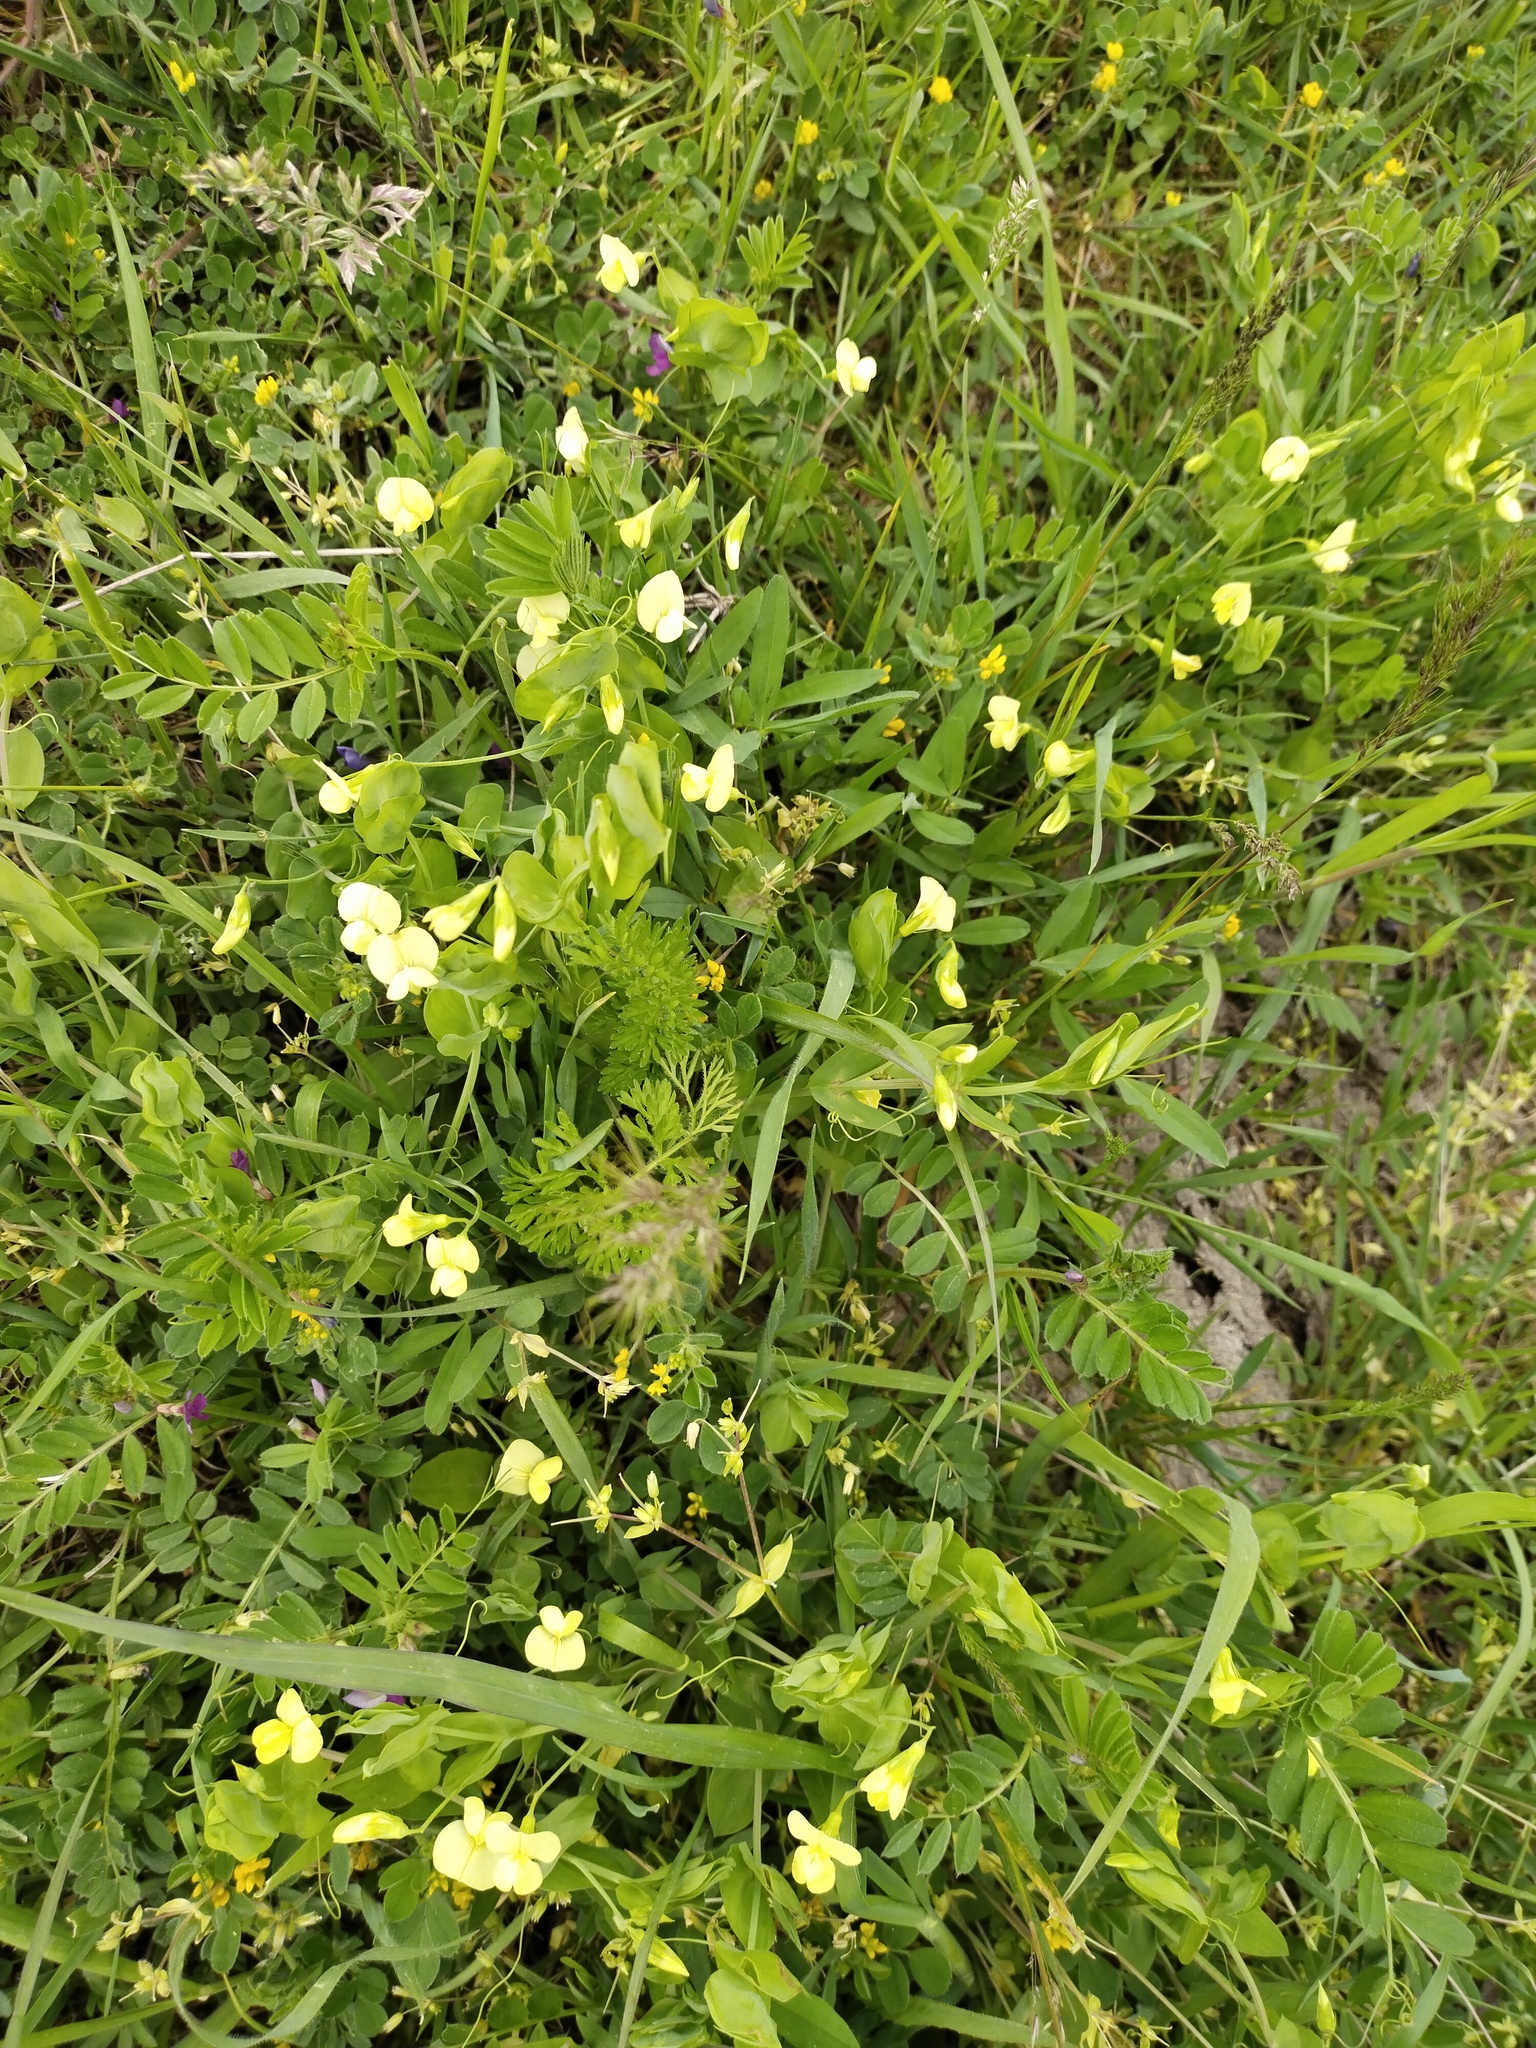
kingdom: Plantae
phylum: Tracheophyta
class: Magnoliopsida
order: Fabales
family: Fabaceae
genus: Lathyrus
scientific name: Lathyrus aphaca
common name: Yellow vetchling
